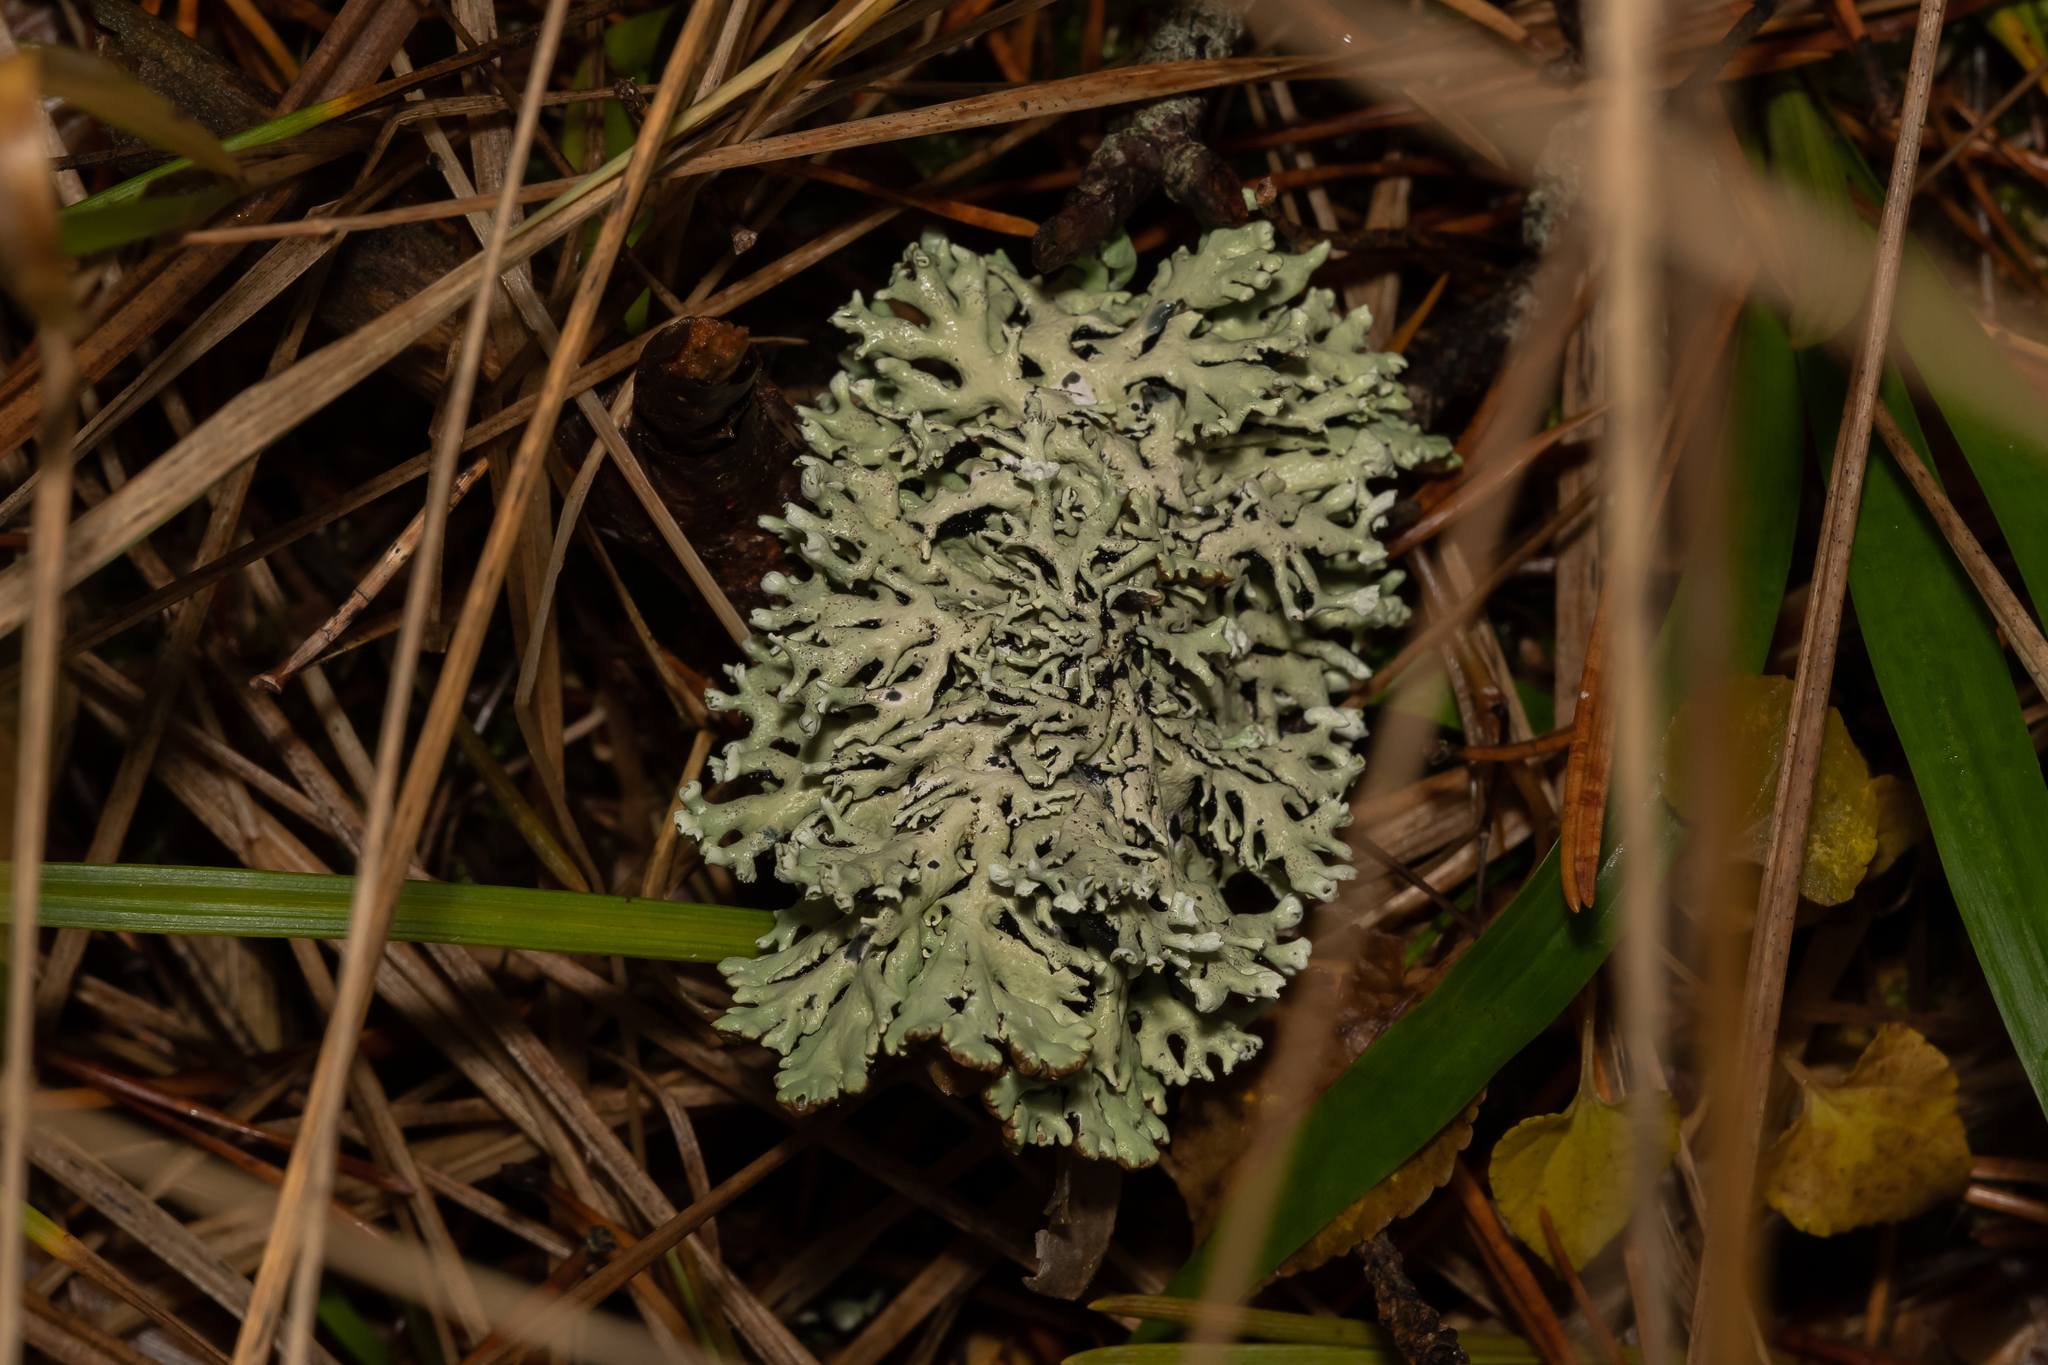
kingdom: Fungi
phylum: Ascomycota
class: Lecanoromycetes
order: Lecanorales
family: Parmeliaceae
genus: Hypogymnia
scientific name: Hypogymnia physodes
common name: Dark crottle
